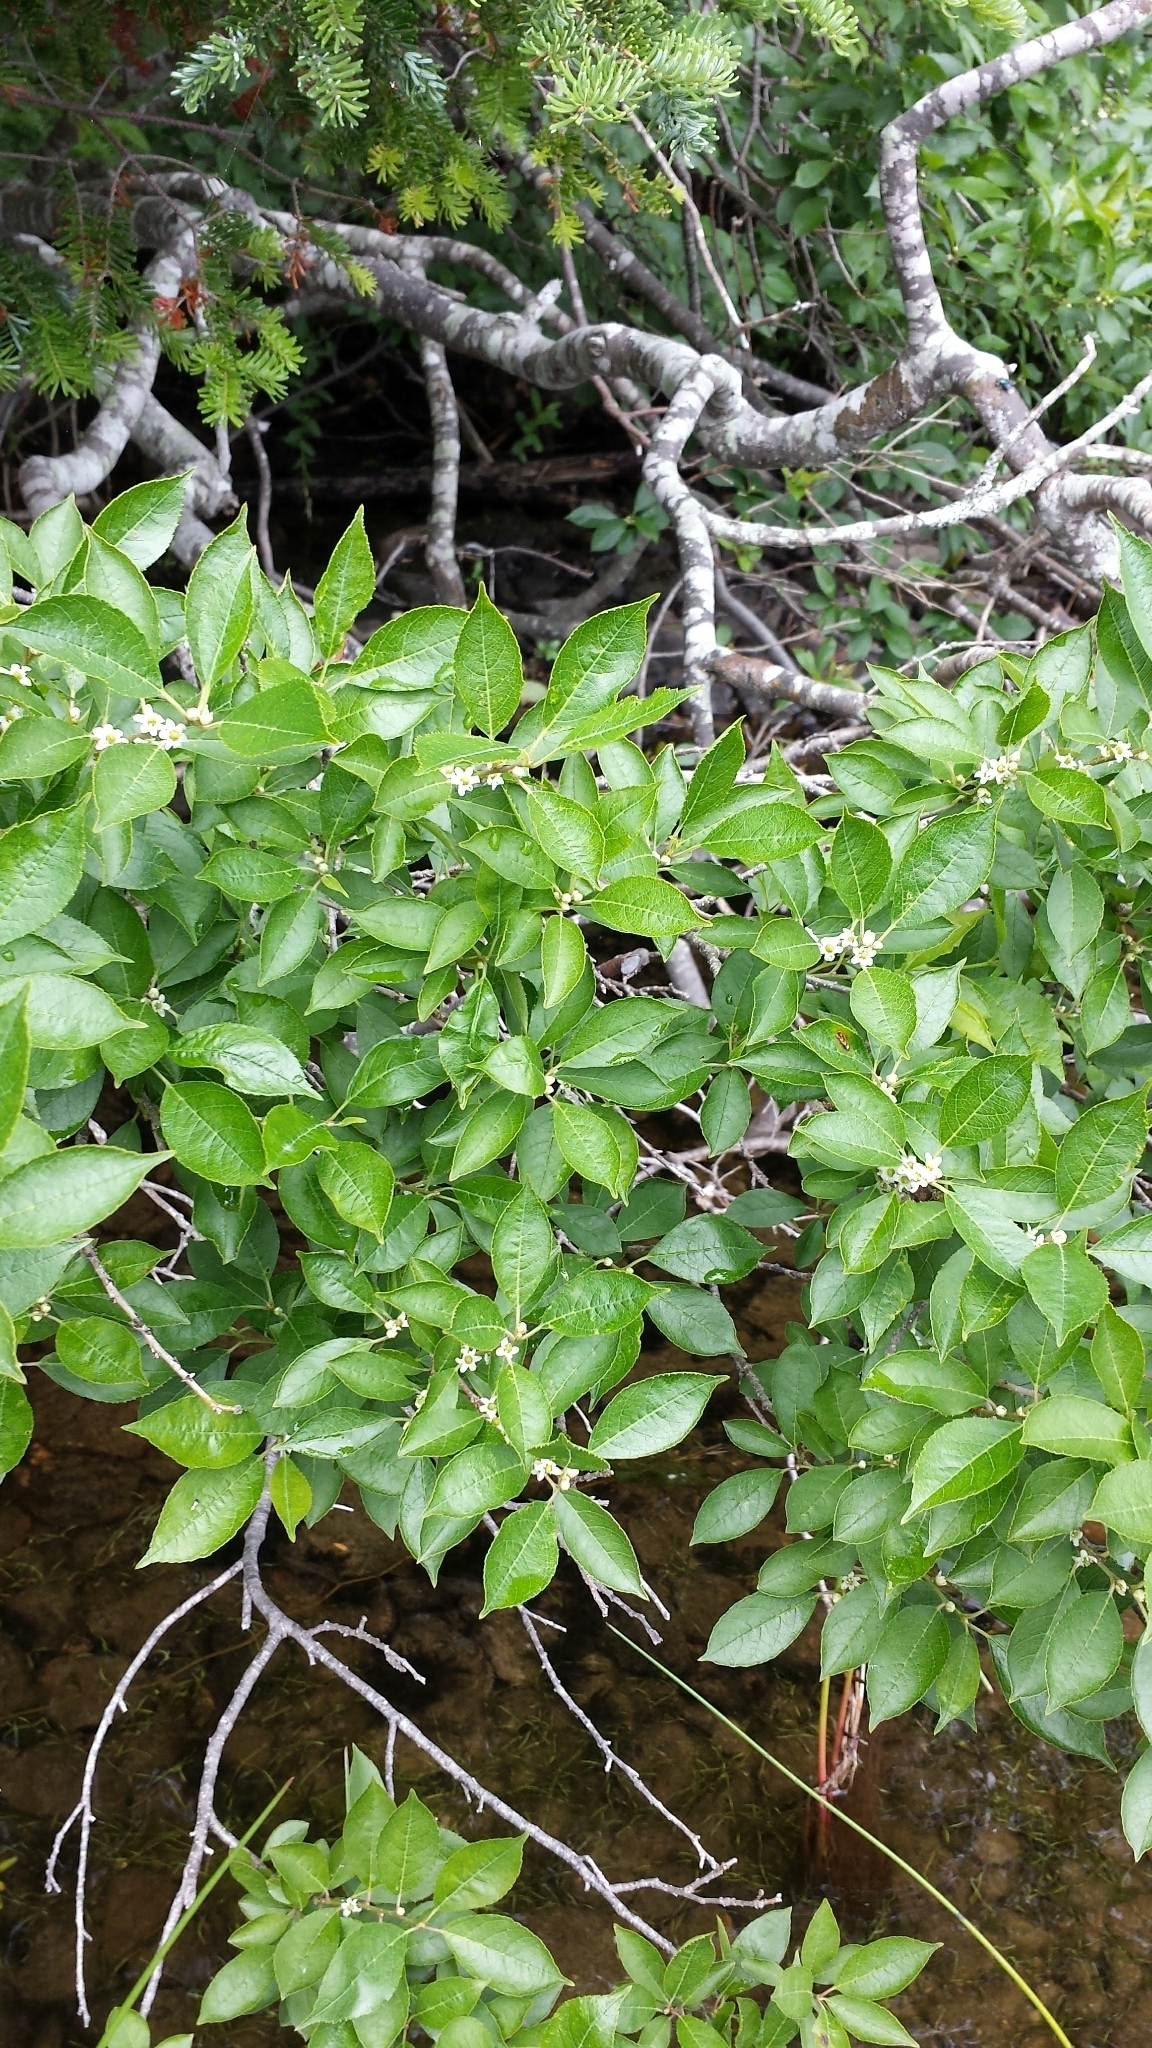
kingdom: Plantae
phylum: Tracheophyta
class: Magnoliopsida
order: Aquifoliales
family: Aquifoliaceae
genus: Ilex
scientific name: Ilex verticillata
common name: Virginia winterberry
